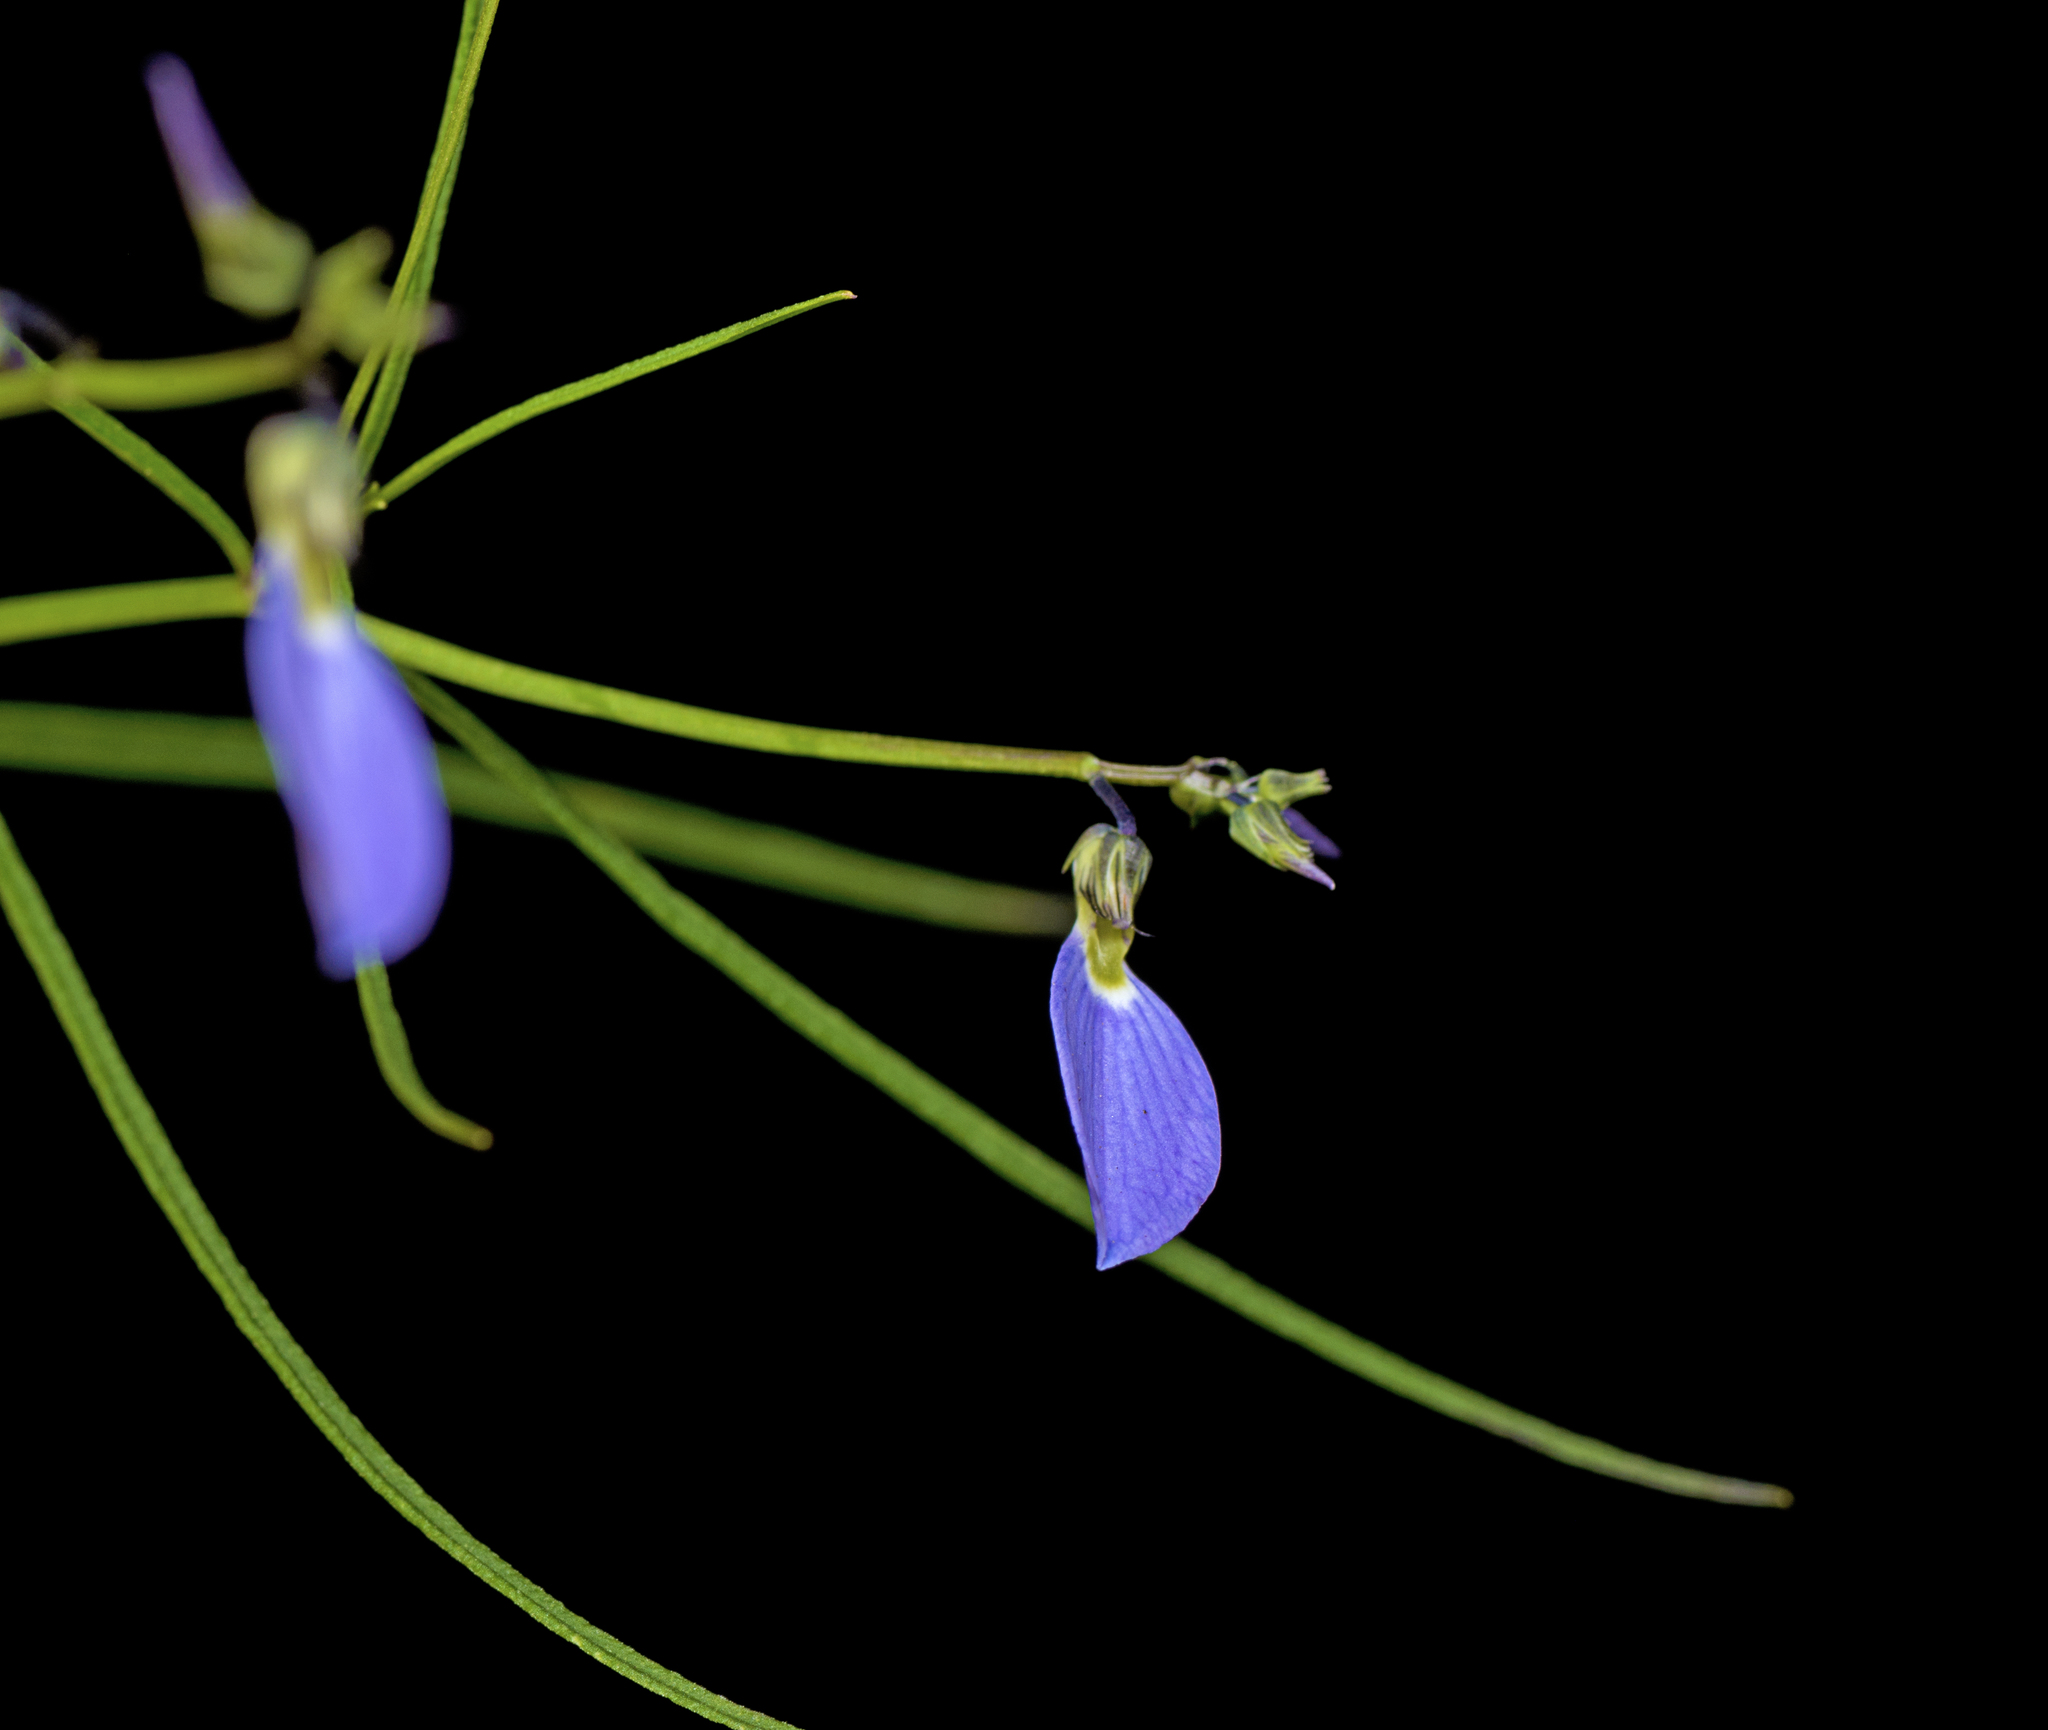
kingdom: Plantae
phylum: Tracheophyta
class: Magnoliopsida
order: Malpighiales
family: Violaceae
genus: Pigea
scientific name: Pigea monopetala
